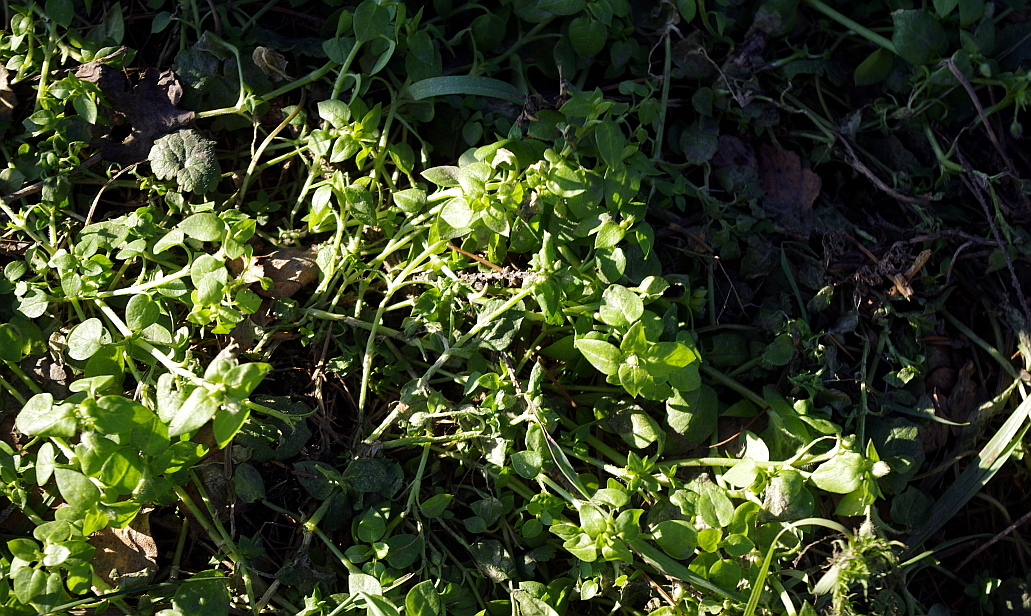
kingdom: Plantae
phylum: Tracheophyta
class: Magnoliopsida
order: Caryophyllales
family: Caryophyllaceae
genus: Stellaria
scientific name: Stellaria media
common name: Common chickweed
